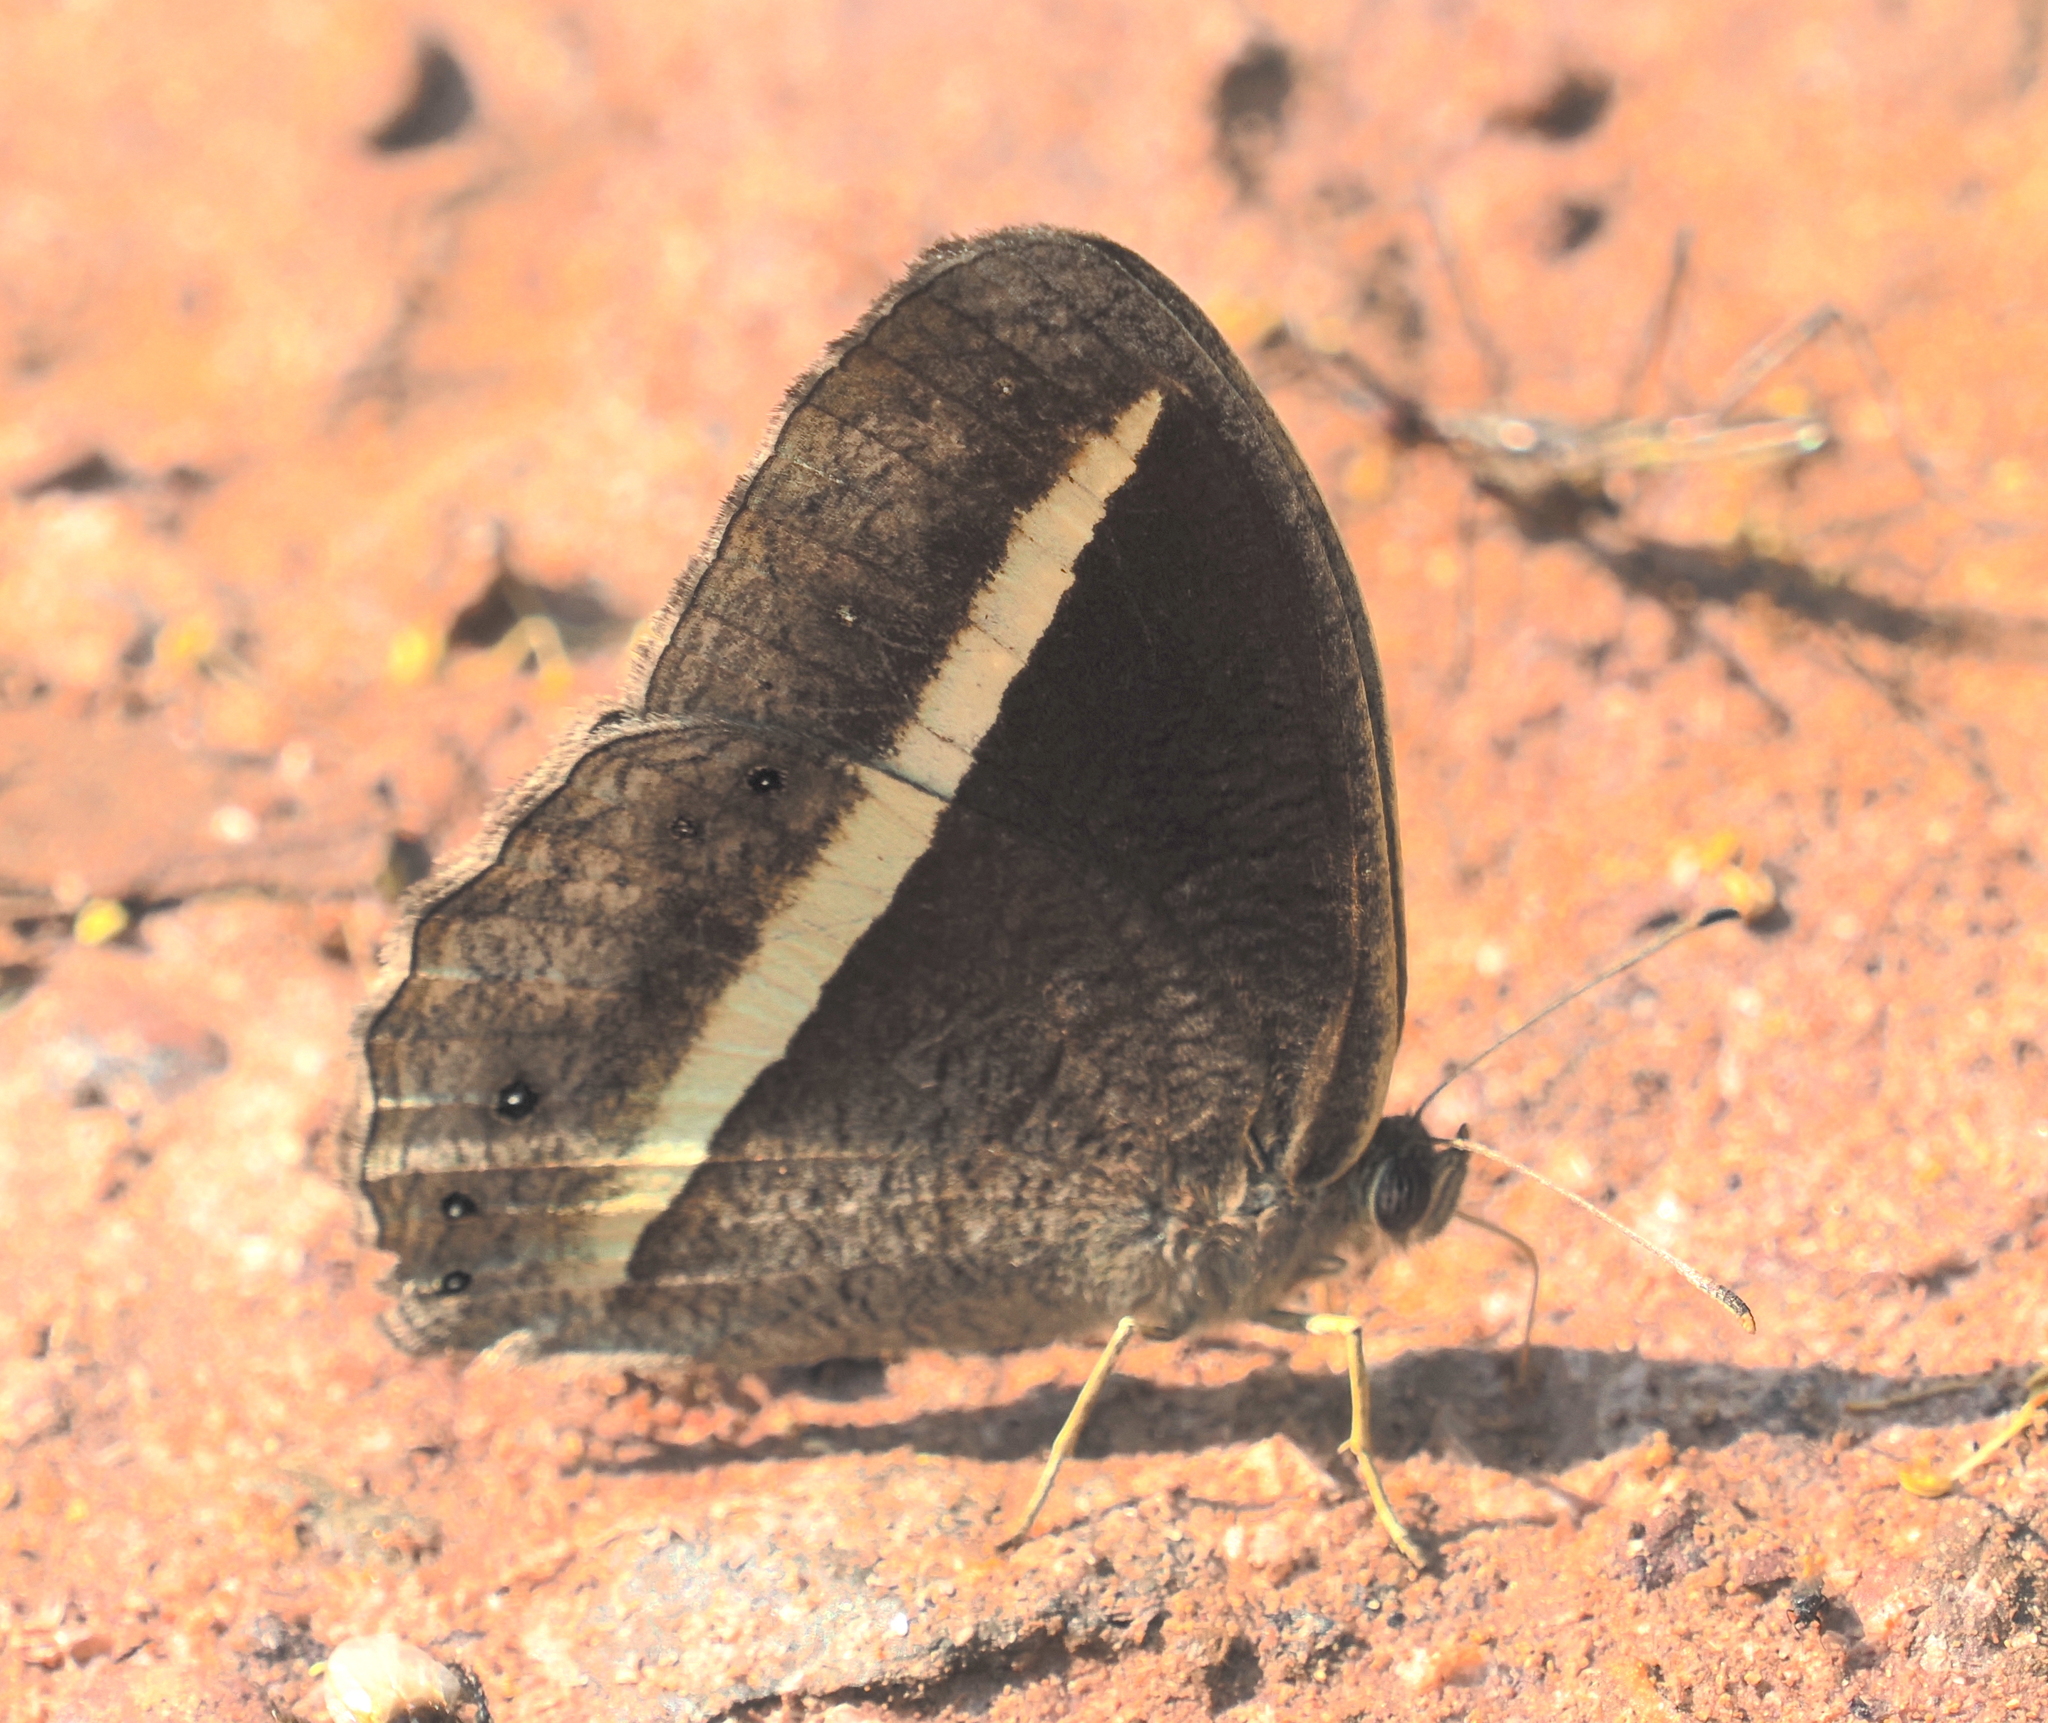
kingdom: Animalia
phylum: Arthropoda
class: Insecta
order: Lepidoptera
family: Nymphalidae
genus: Mycalesis
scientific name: Mycalesis Telinga malsara
